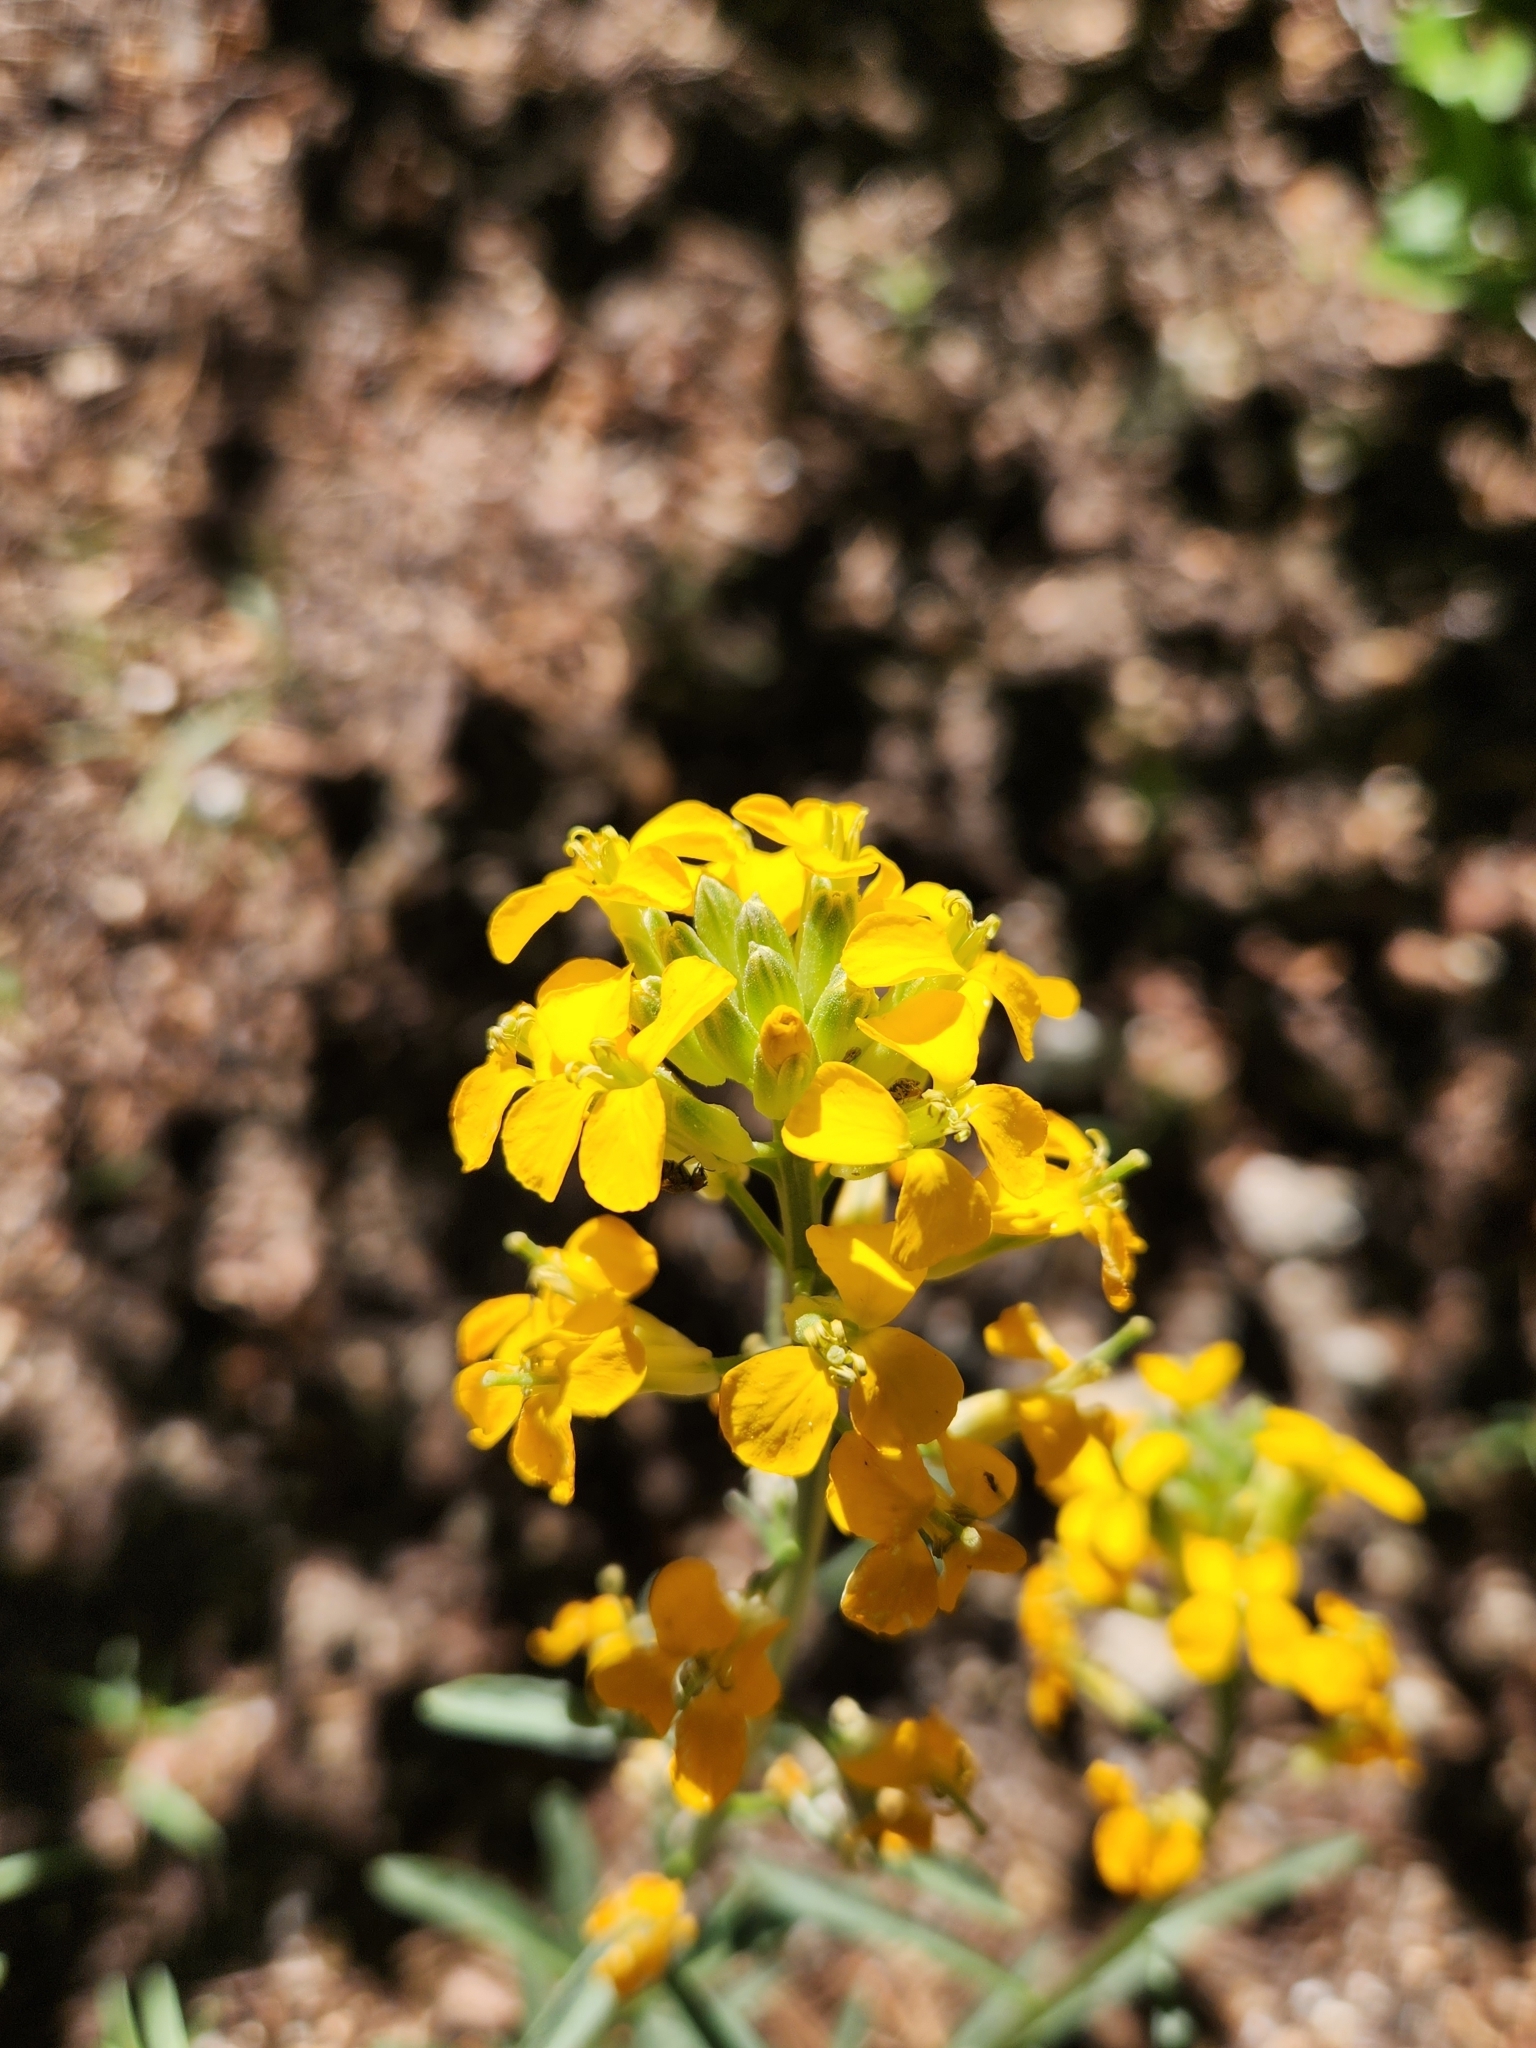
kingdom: Plantae
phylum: Tracheophyta
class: Magnoliopsida
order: Brassicales
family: Brassicaceae
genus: Erysimum
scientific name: Erysimum capitatum
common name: Western wallflower
